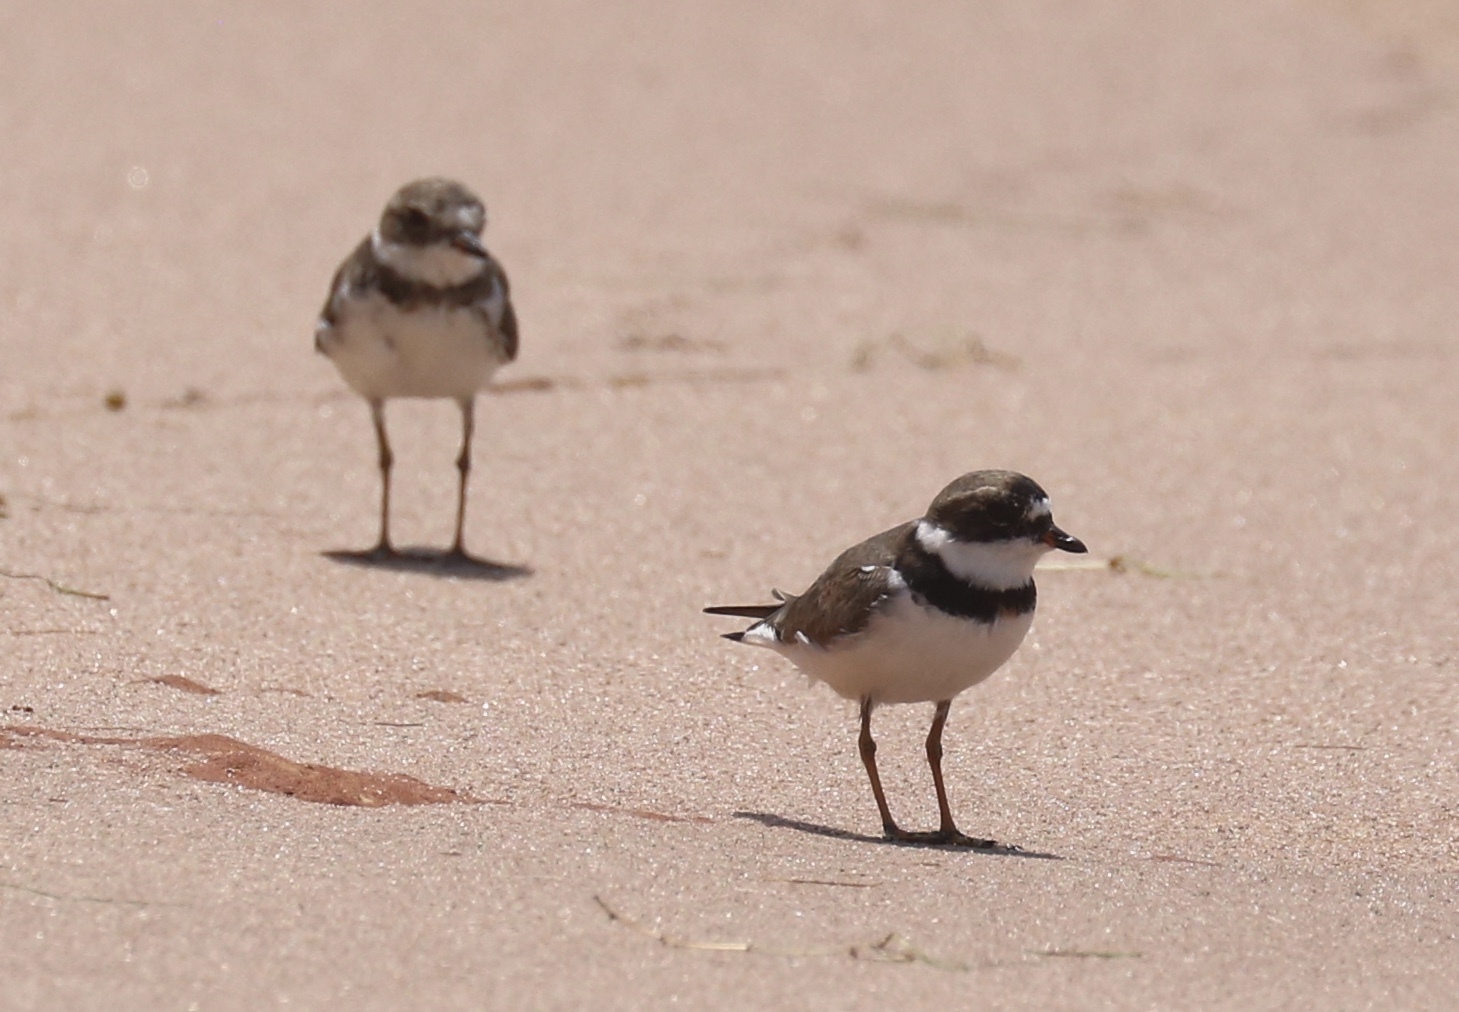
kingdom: Animalia
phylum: Chordata
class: Aves
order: Charadriiformes
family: Charadriidae
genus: Charadrius
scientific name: Charadrius semipalmatus
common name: Semipalmated plover
